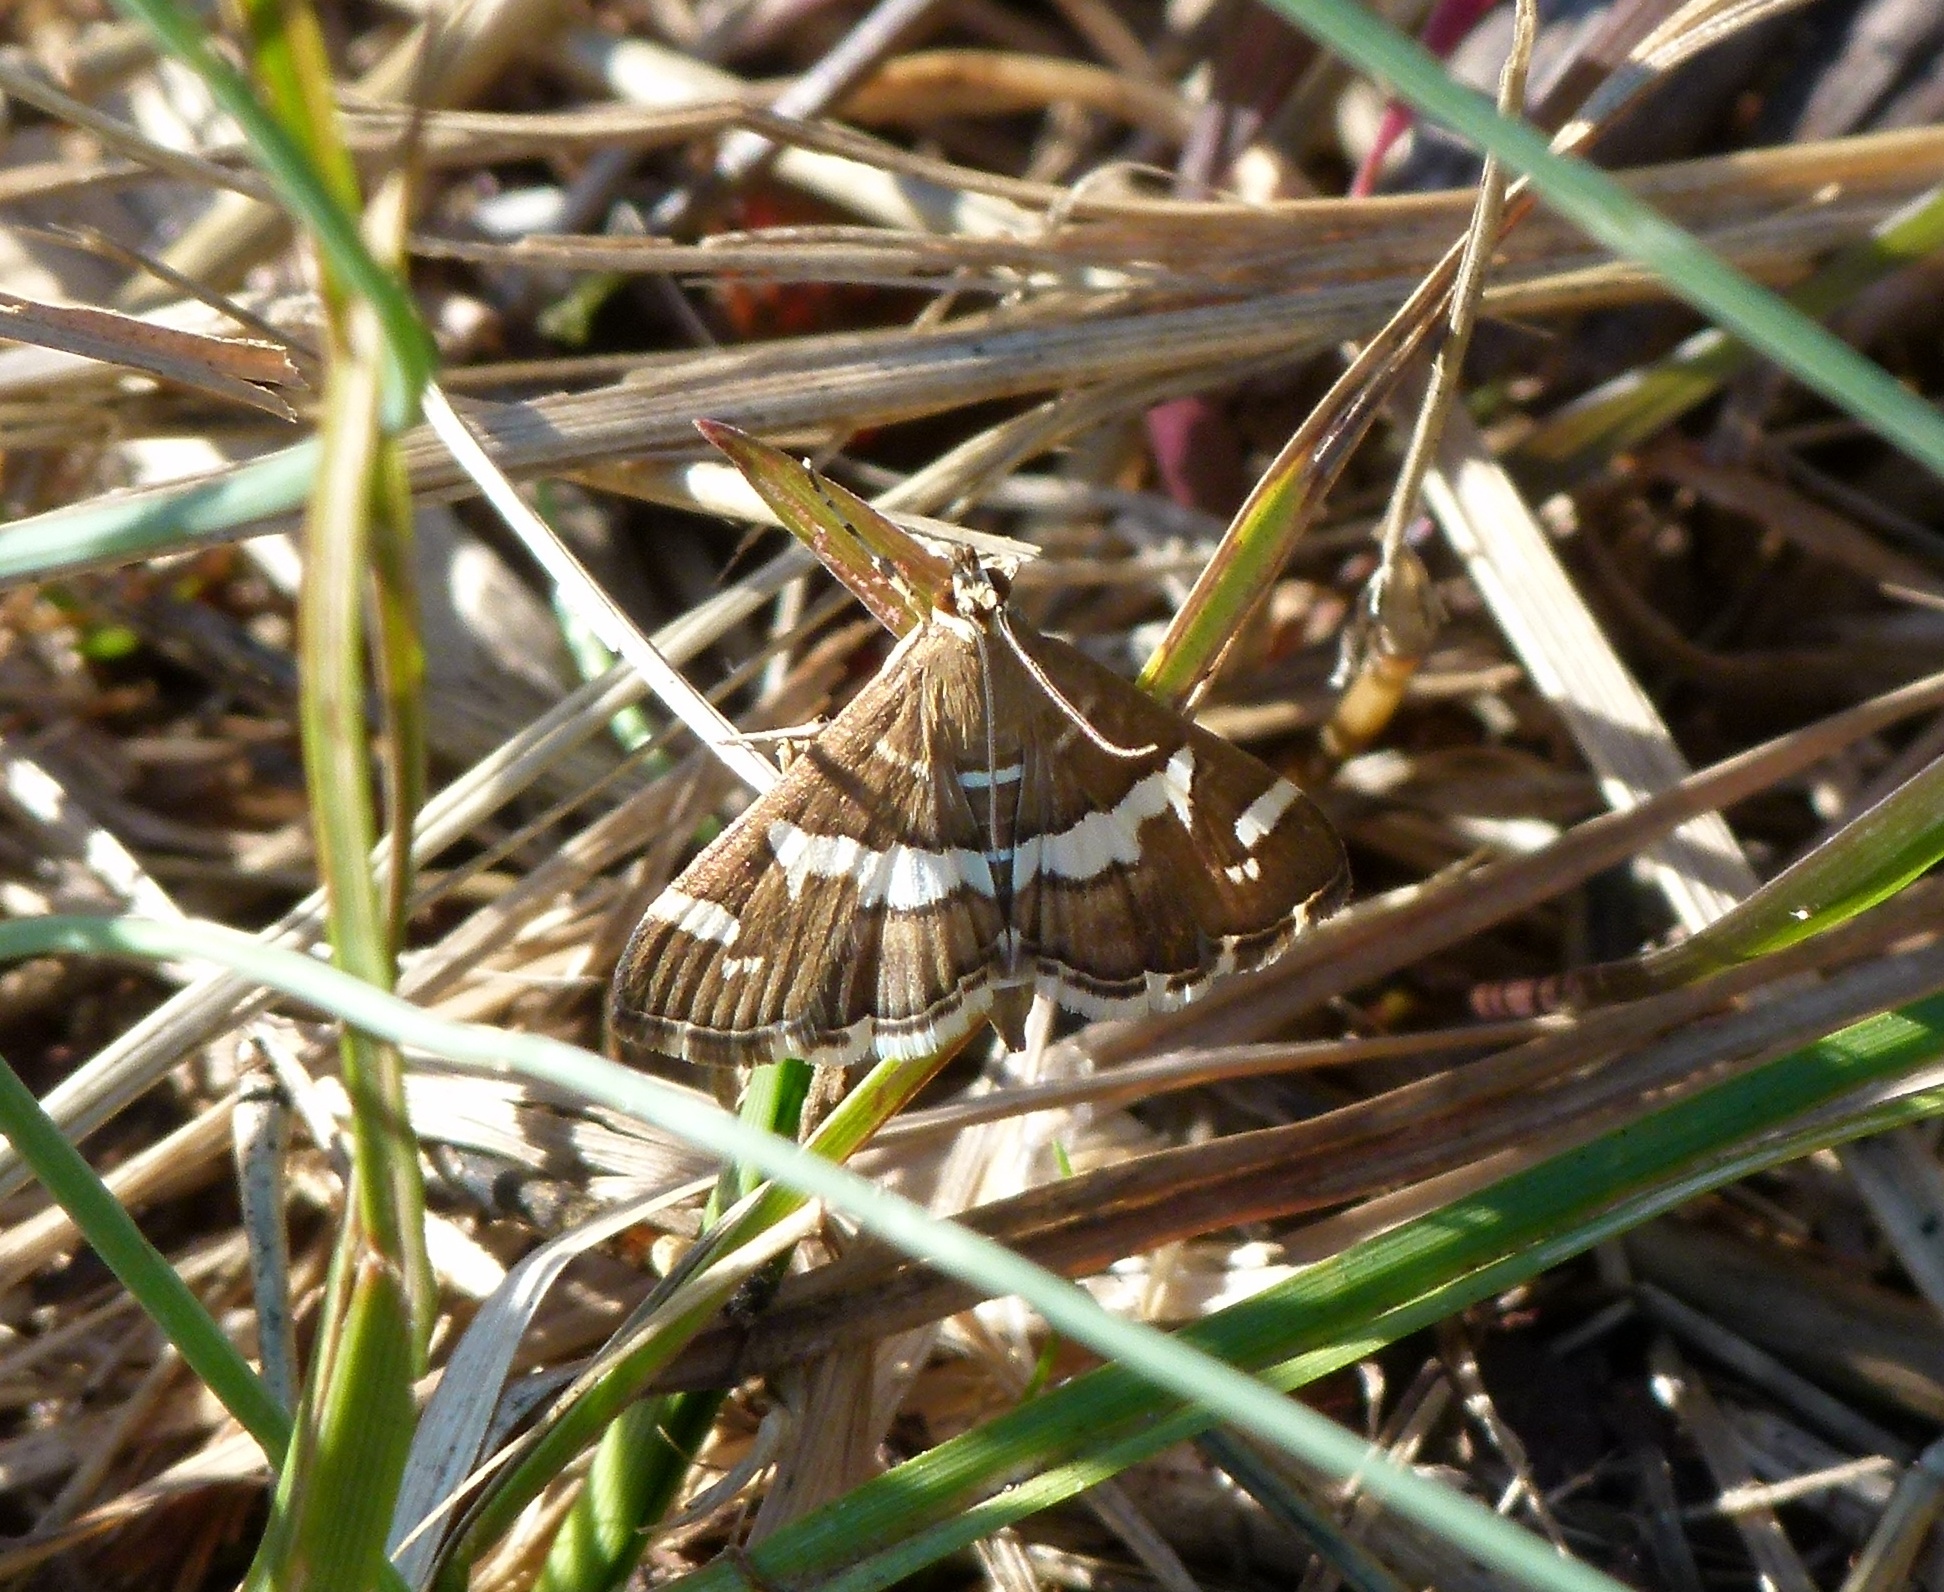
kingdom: Animalia
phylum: Arthropoda
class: Insecta
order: Lepidoptera
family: Crambidae
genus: Spoladea
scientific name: Spoladea recurvalis
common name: Beet webworm moth
